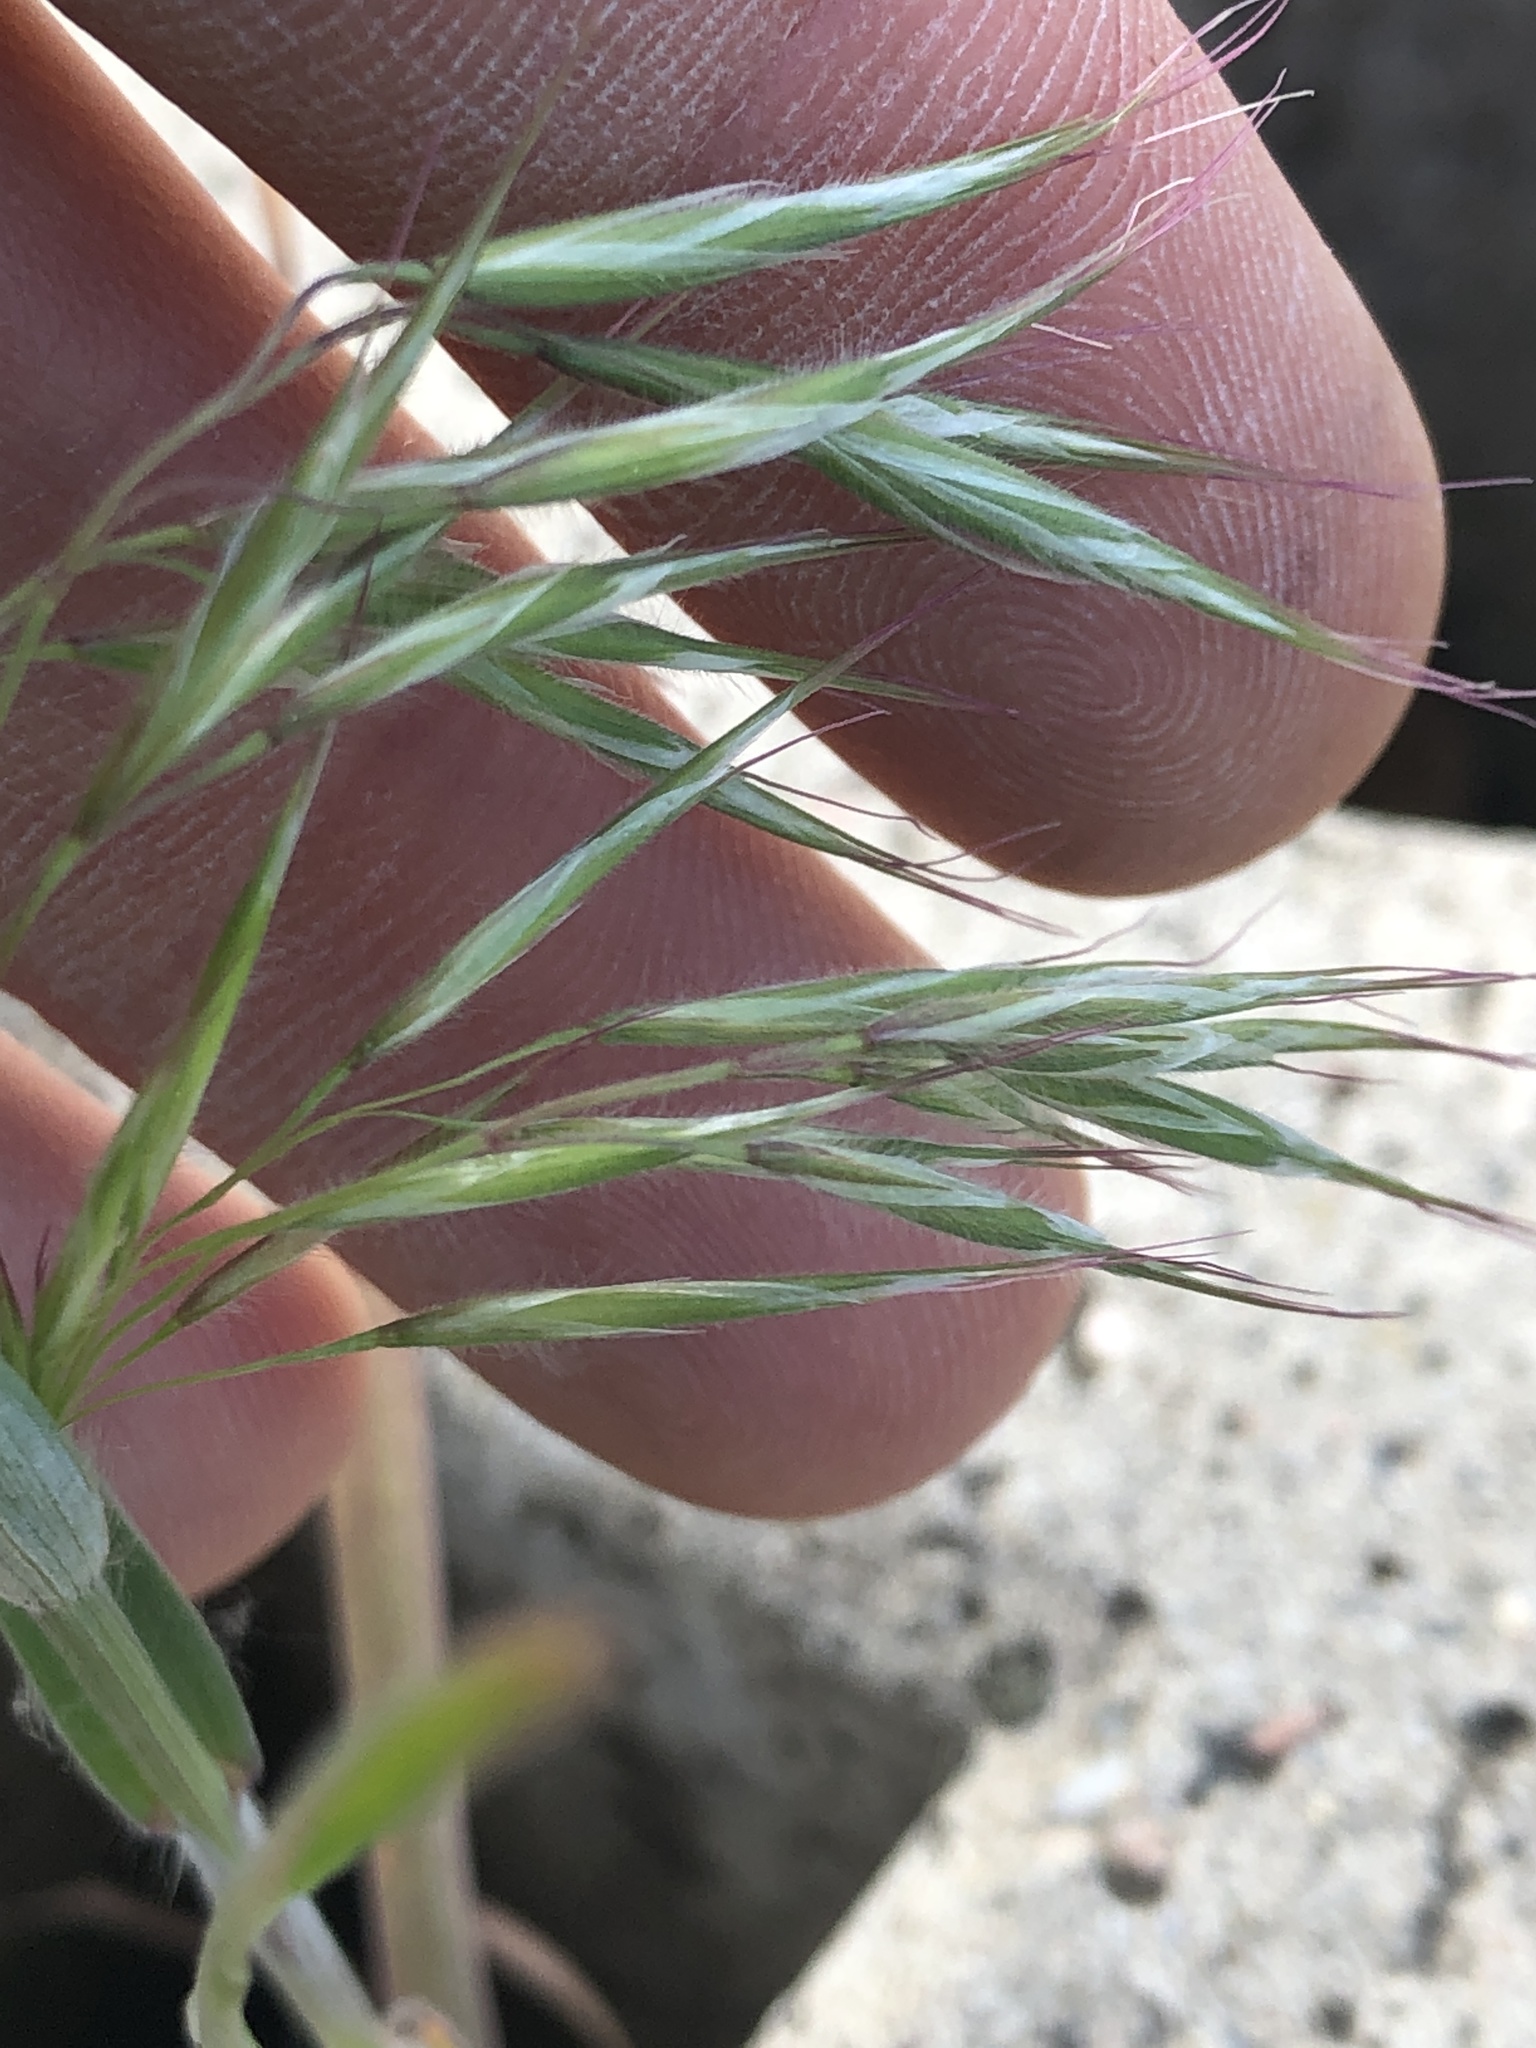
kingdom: Plantae
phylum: Tracheophyta
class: Liliopsida
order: Poales
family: Poaceae
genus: Bromus
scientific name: Bromus tectorum
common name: Cheatgrass
